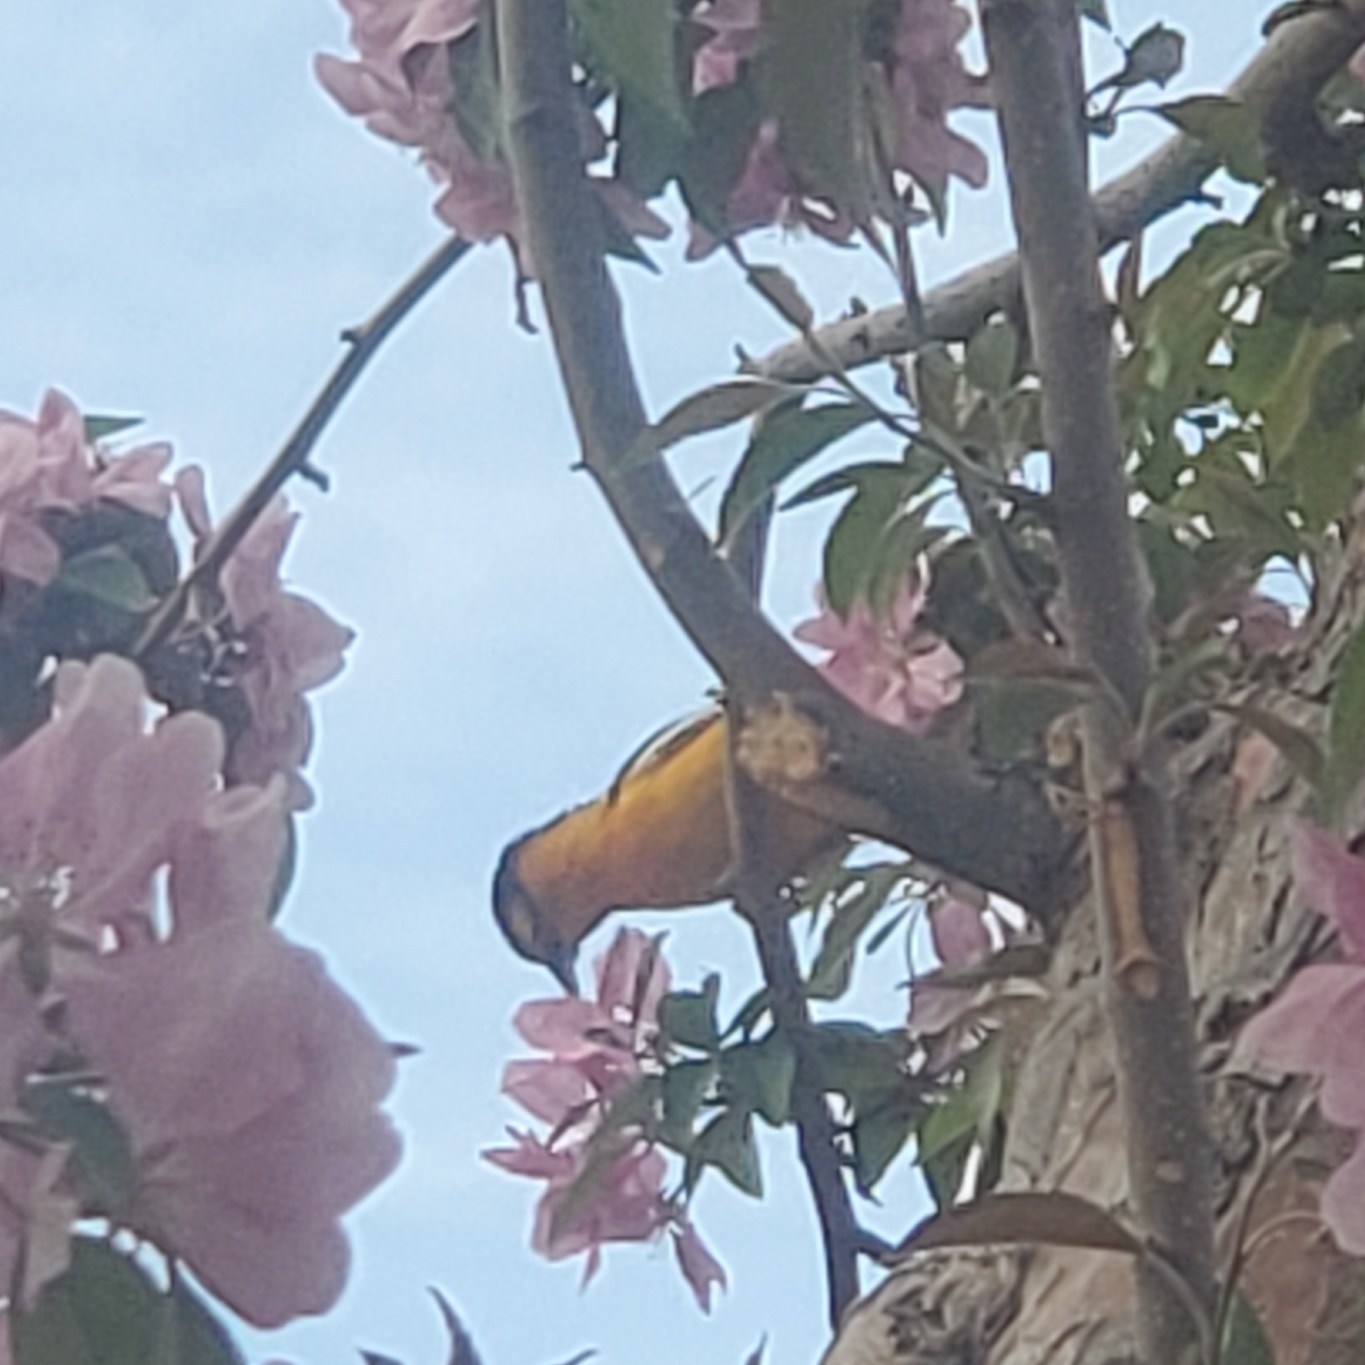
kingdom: Animalia
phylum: Chordata
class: Aves
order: Passeriformes
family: Icteridae
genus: Icterus
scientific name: Icterus bullockii
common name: Bullock's oriole
